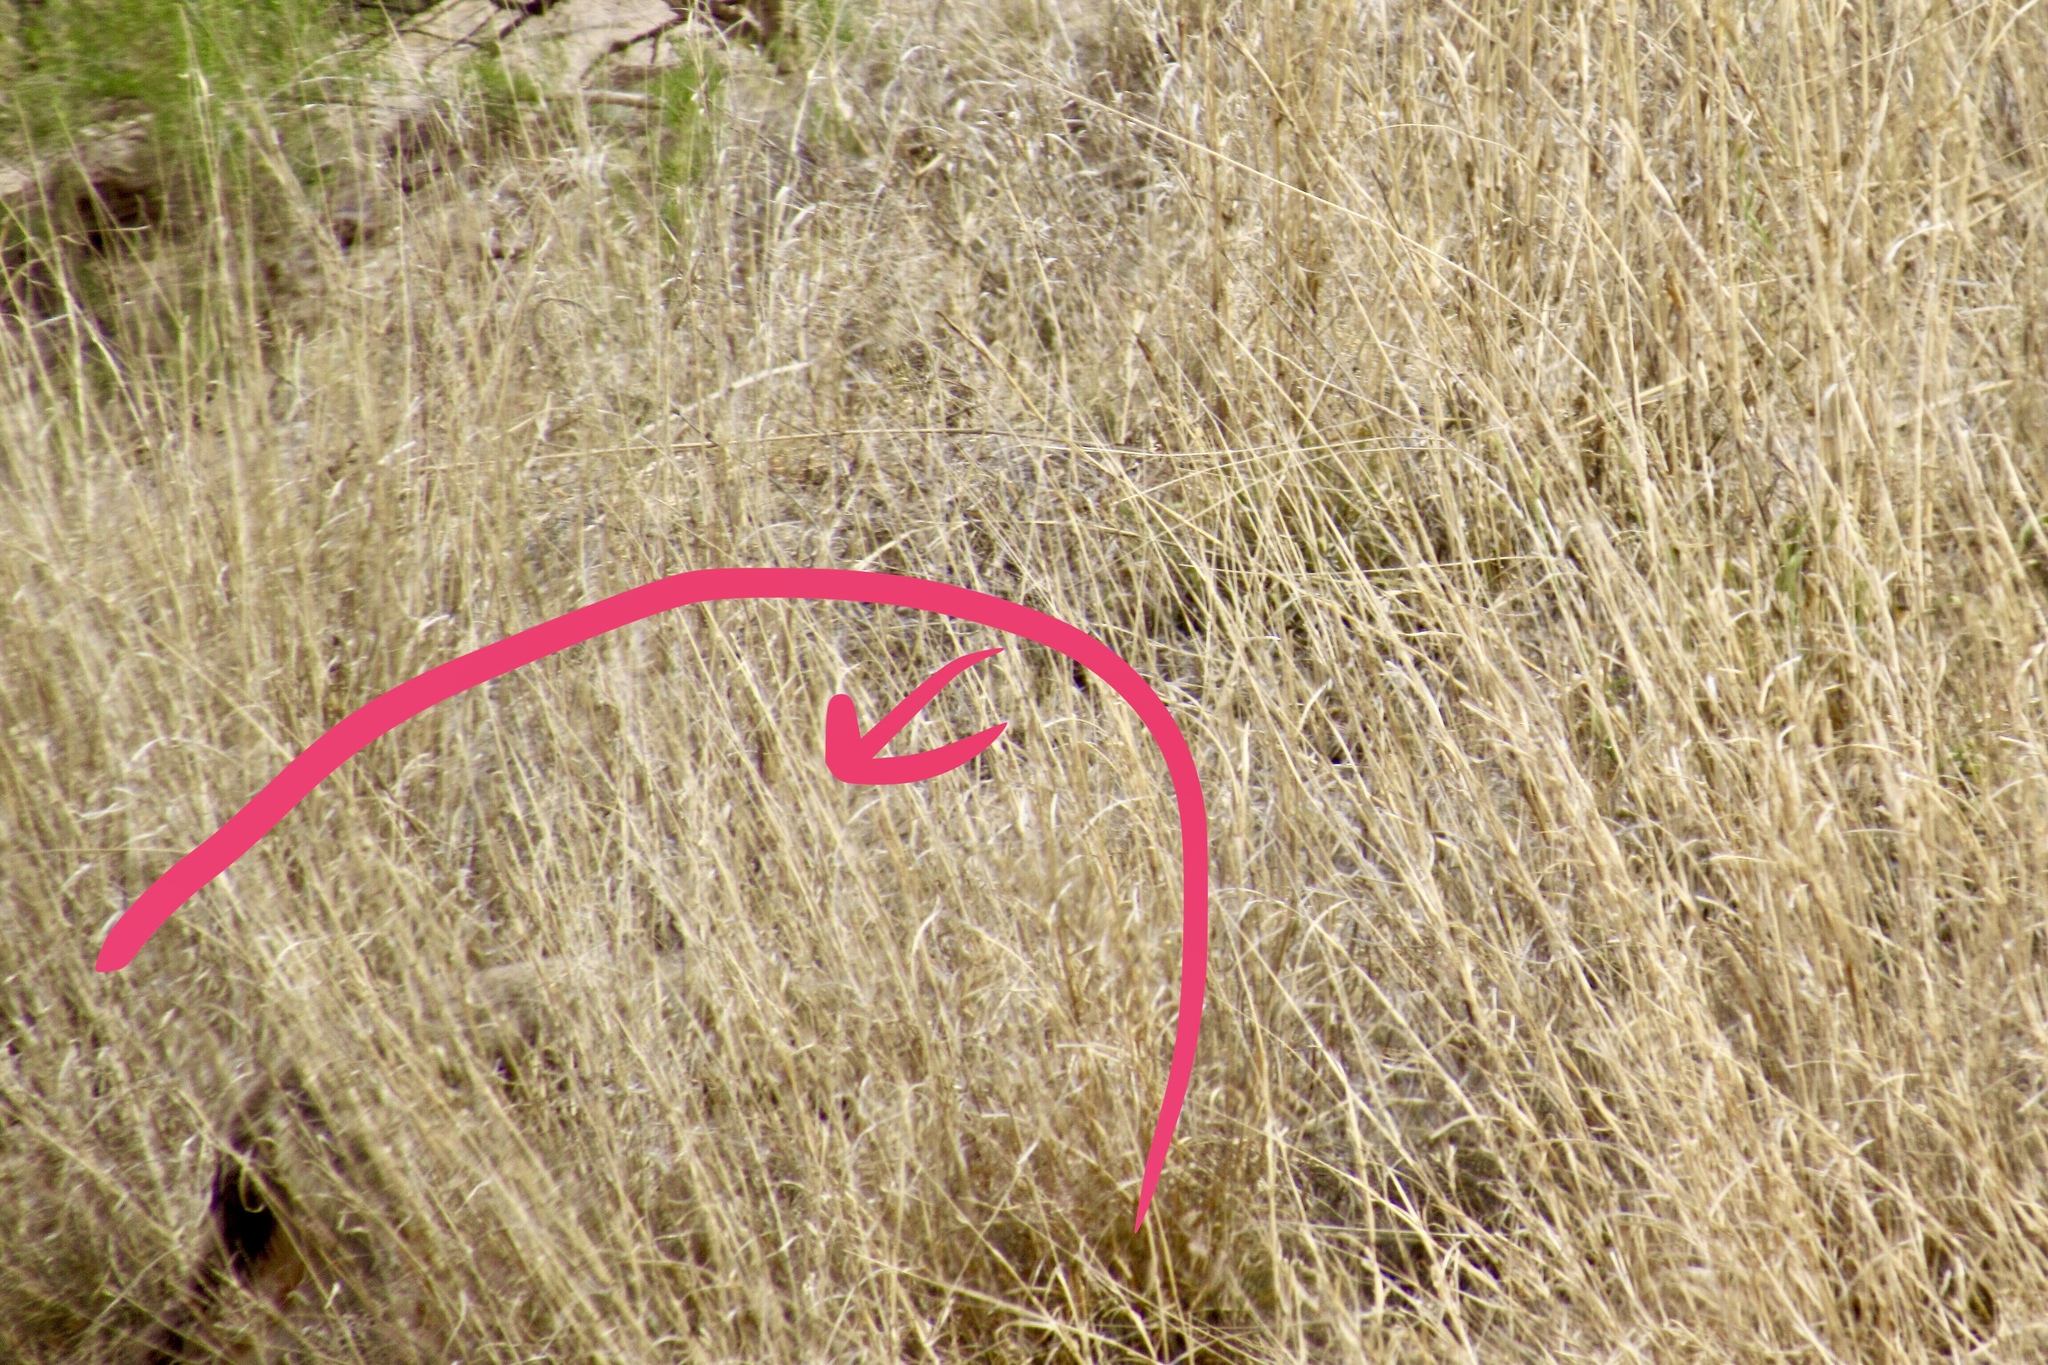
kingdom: Animalia
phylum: Chordata
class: Mammalia
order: Carnivora
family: Canidae
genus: Canis
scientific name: Canis latrans
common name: Coyote
